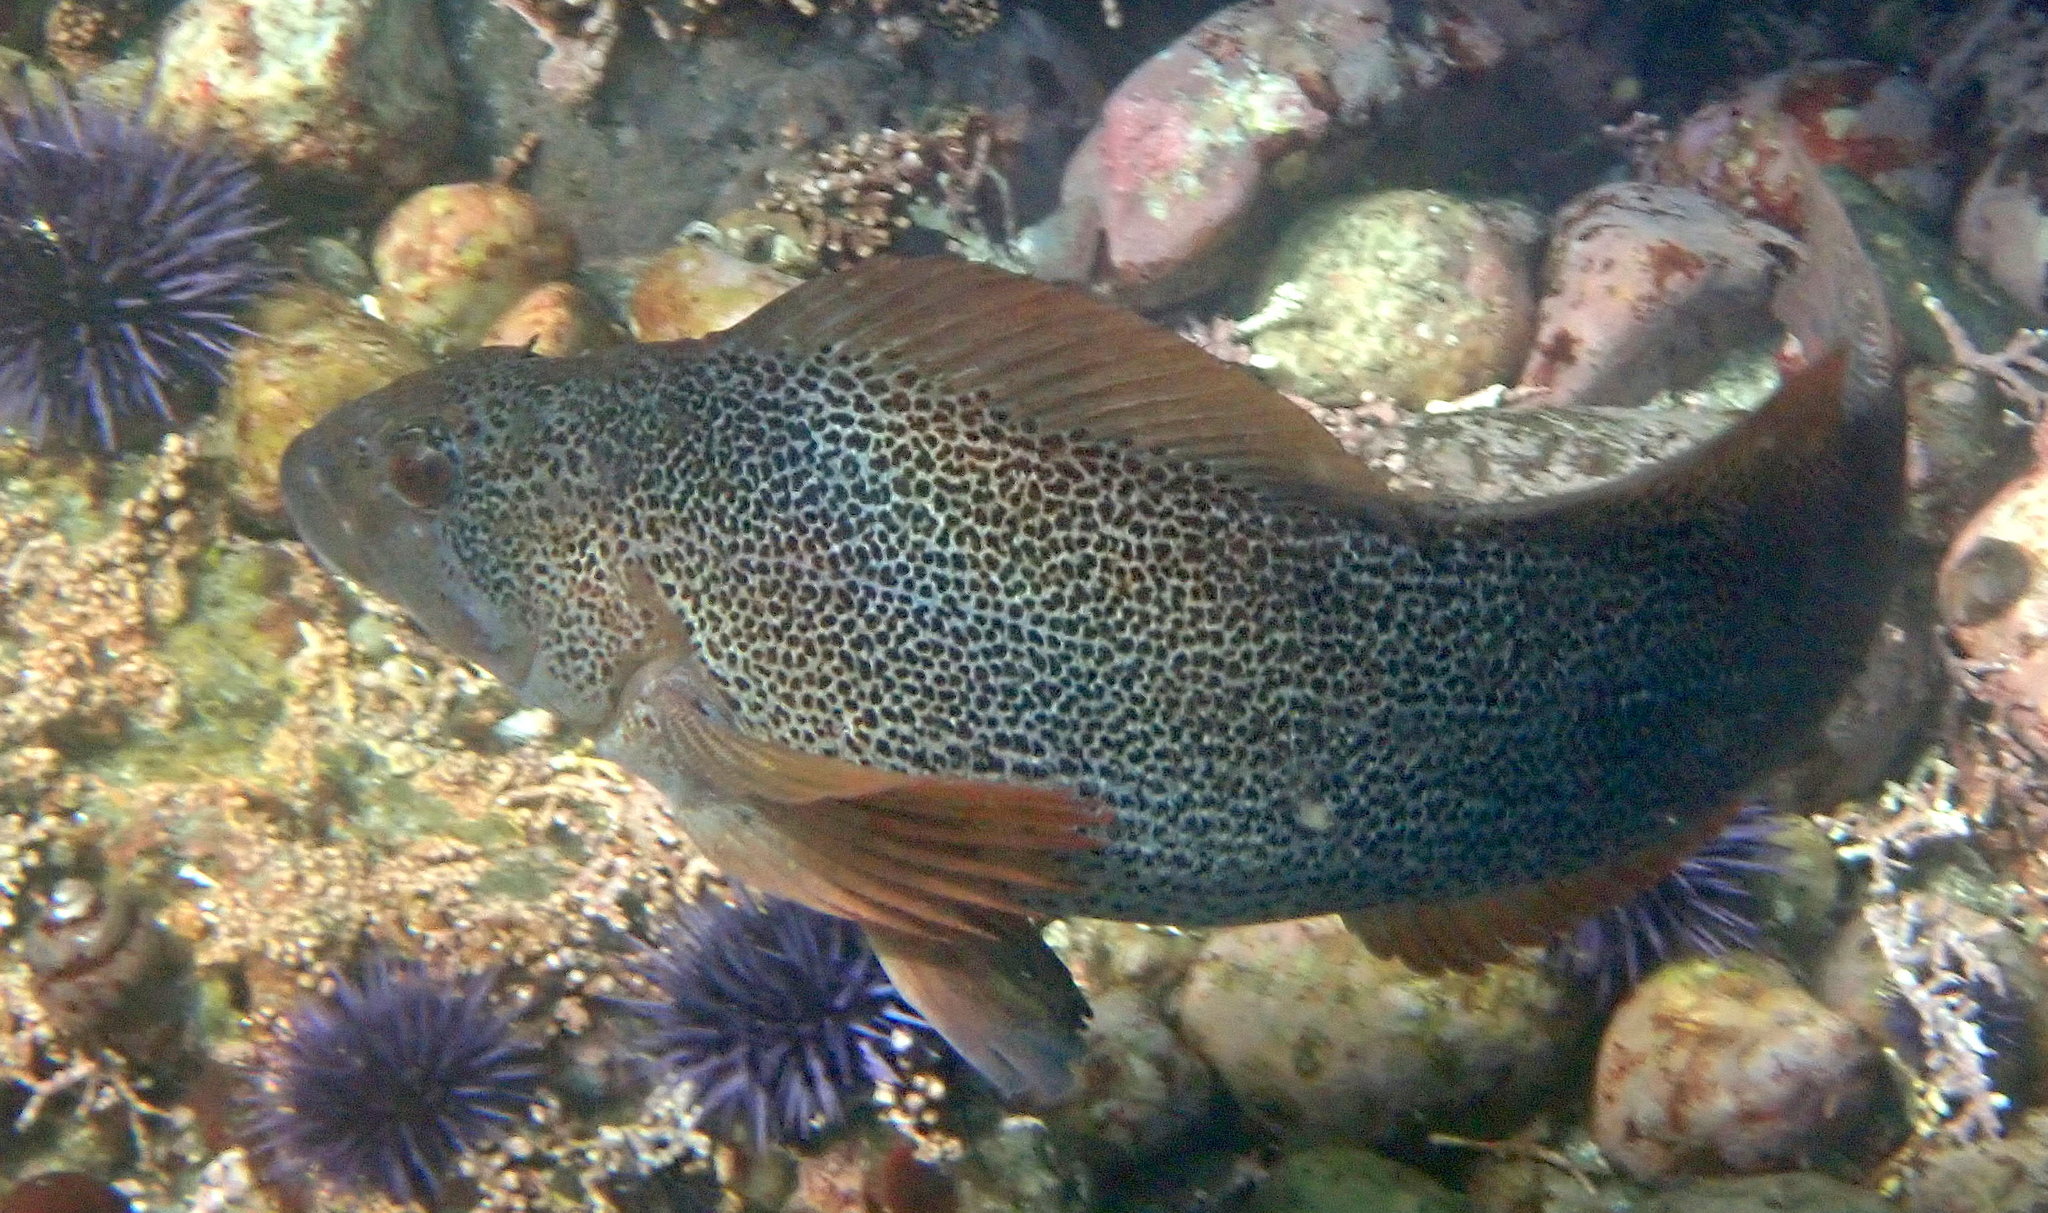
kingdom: Animalia
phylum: Chordata
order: Scorpaeniformes
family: Hexagrammidae
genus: Hexagrammos
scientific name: Hexagrammos decagrammus
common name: Kelp greenling
